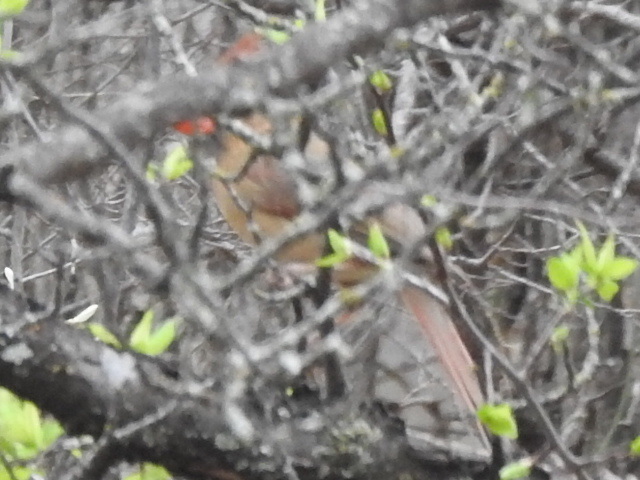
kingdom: Animalia
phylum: Chordata
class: Aves
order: Passeriformes
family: Cardinalidae
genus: Cardinalis
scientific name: Cardinalis cardinalis
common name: Northern cardinal
